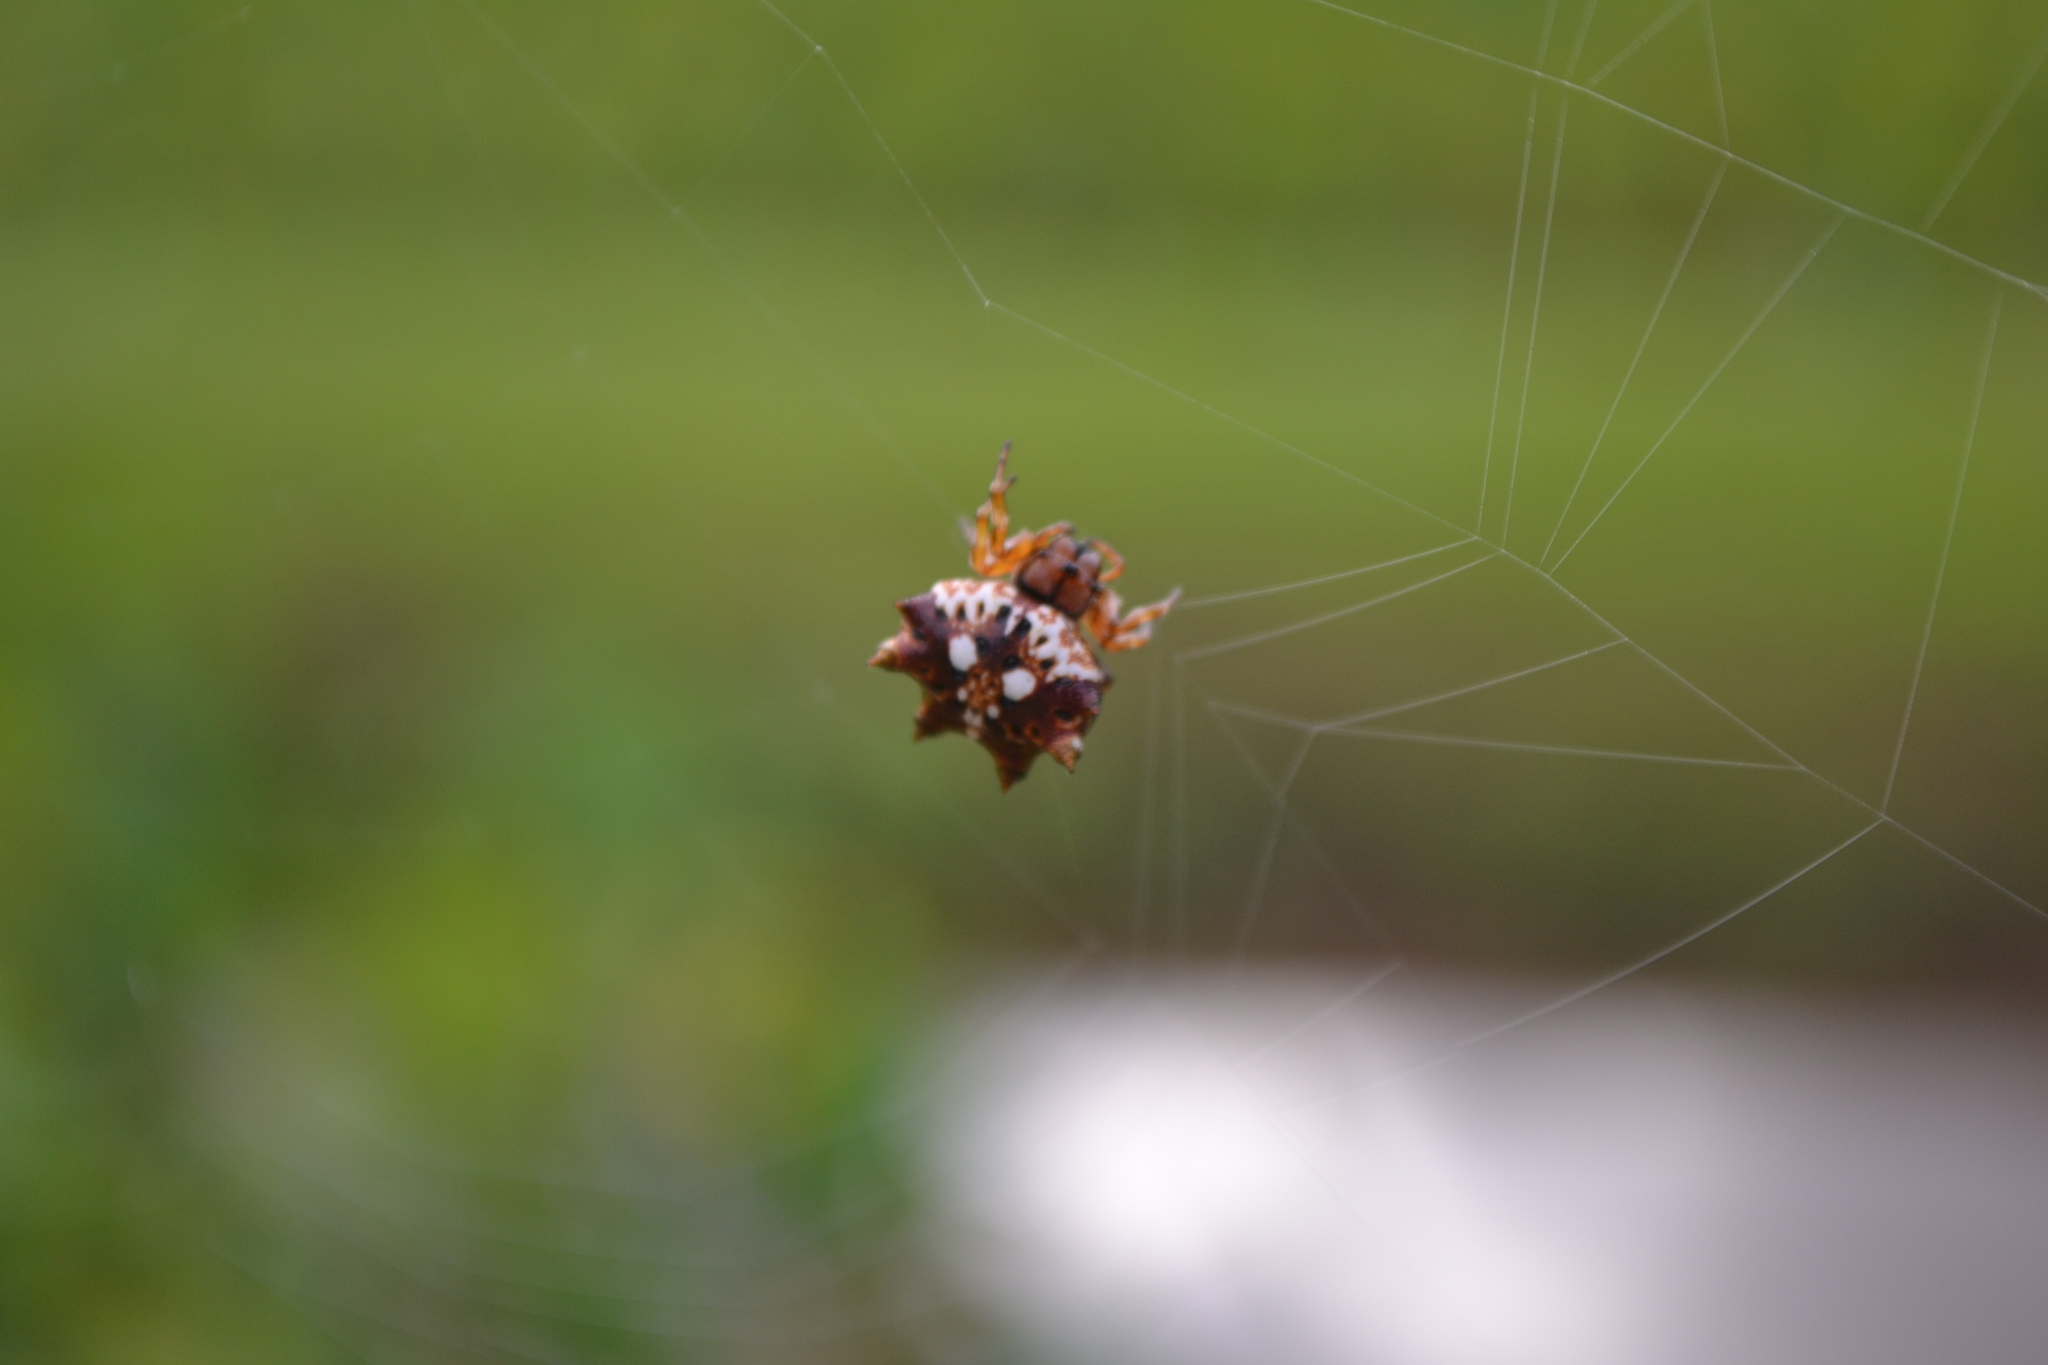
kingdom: Animalia
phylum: Arthropoda
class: Arachnida
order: Araneae
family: Araneidae
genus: Thelacantha
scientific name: Thelacantha brevispina
